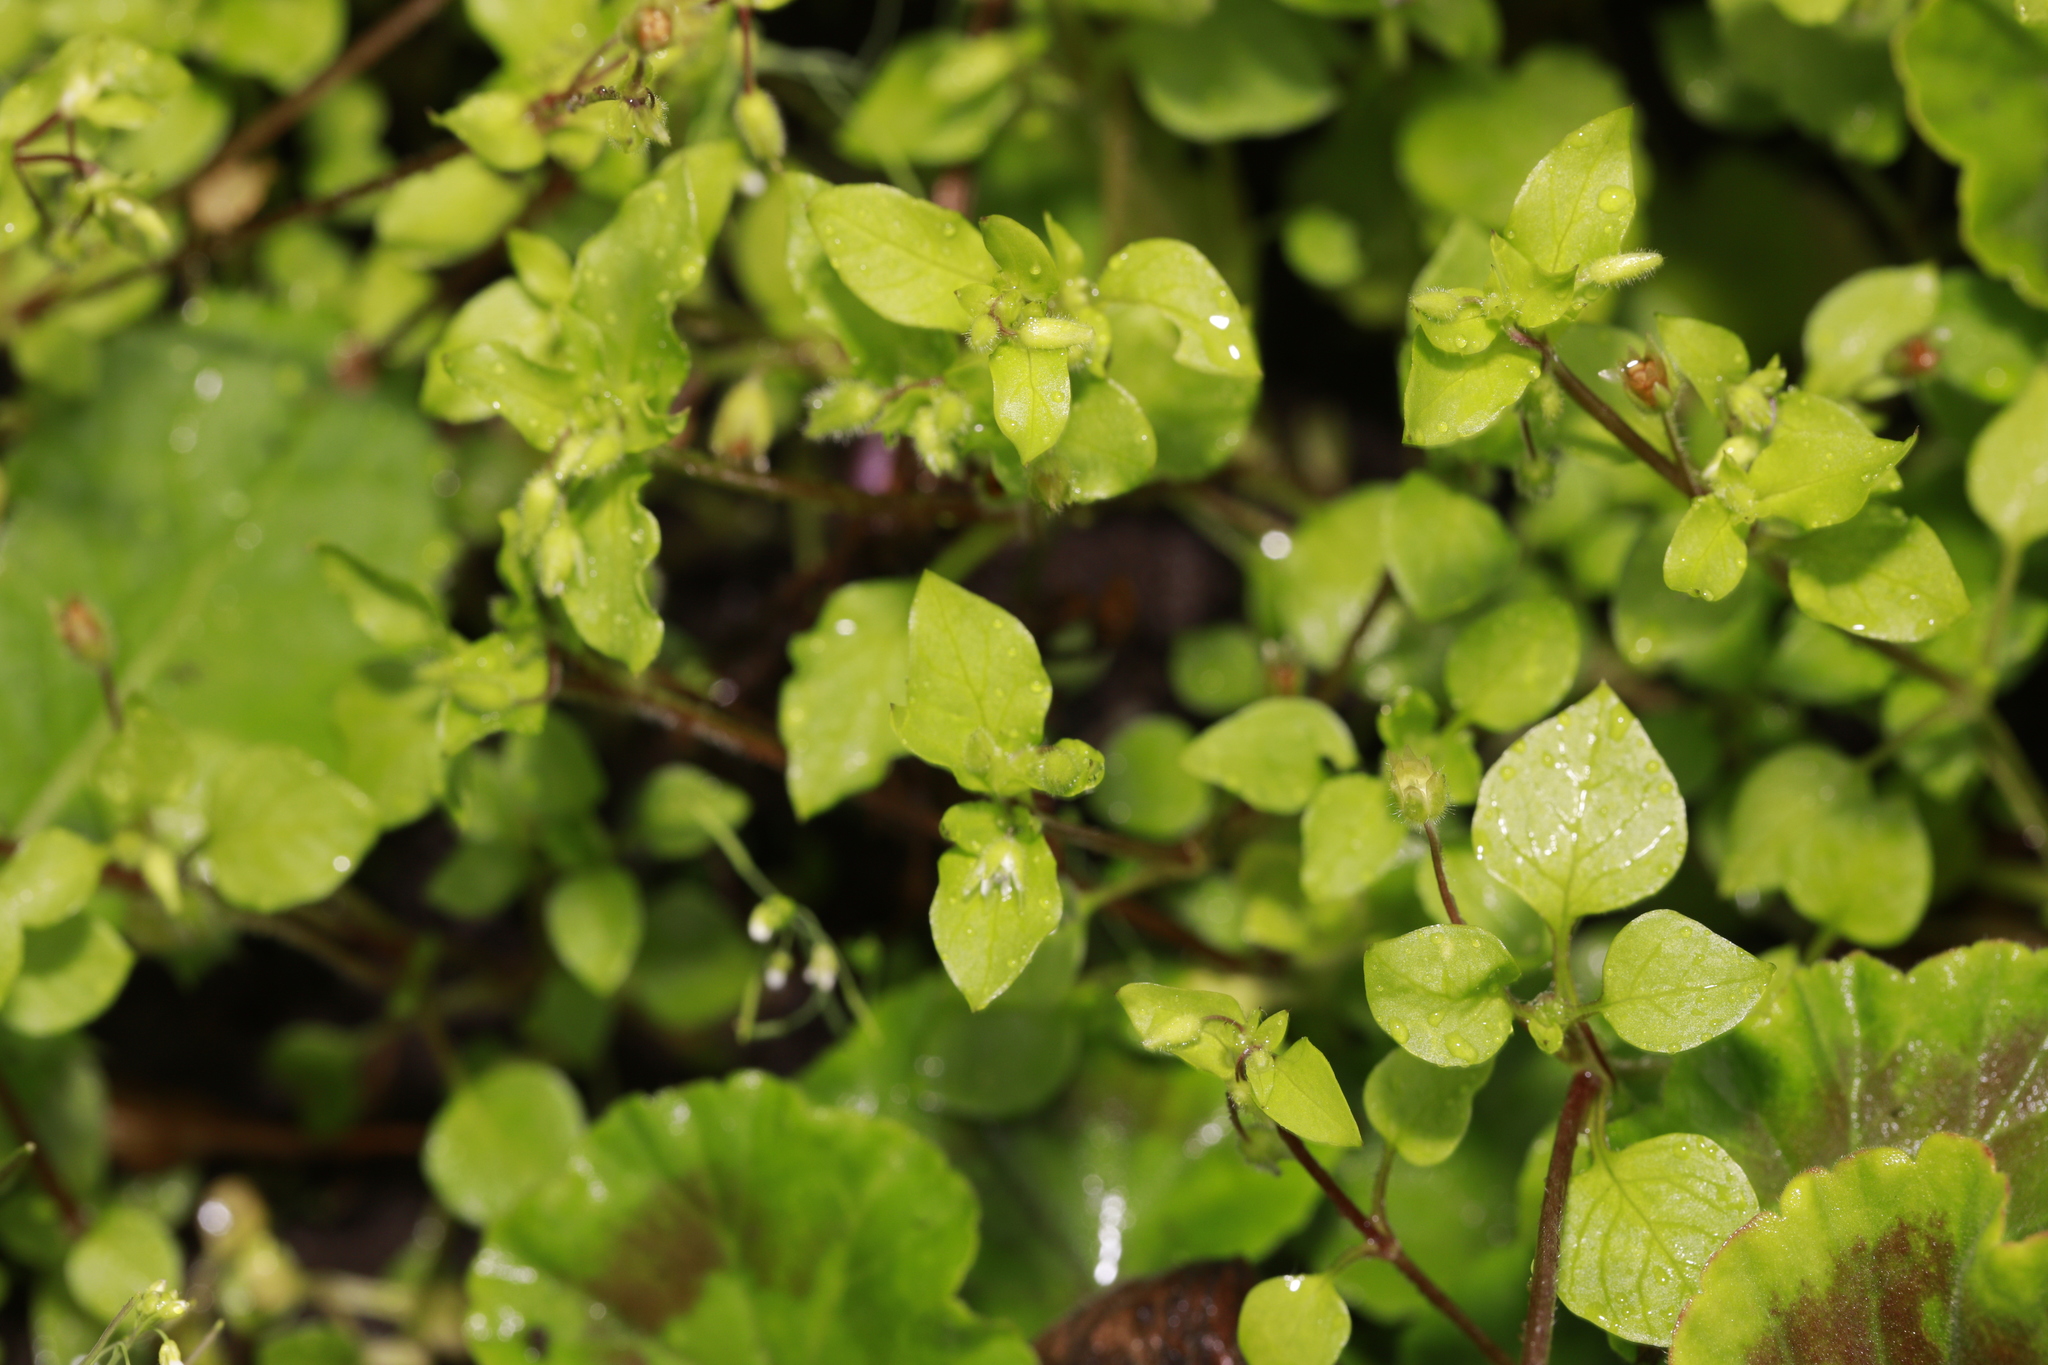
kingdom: Plantae
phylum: Tracheophyta
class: Magnoliopsida
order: Caryophyllales
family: Caryophyllaceae
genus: Stellaria
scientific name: Stellaria media
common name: Common chickweed
